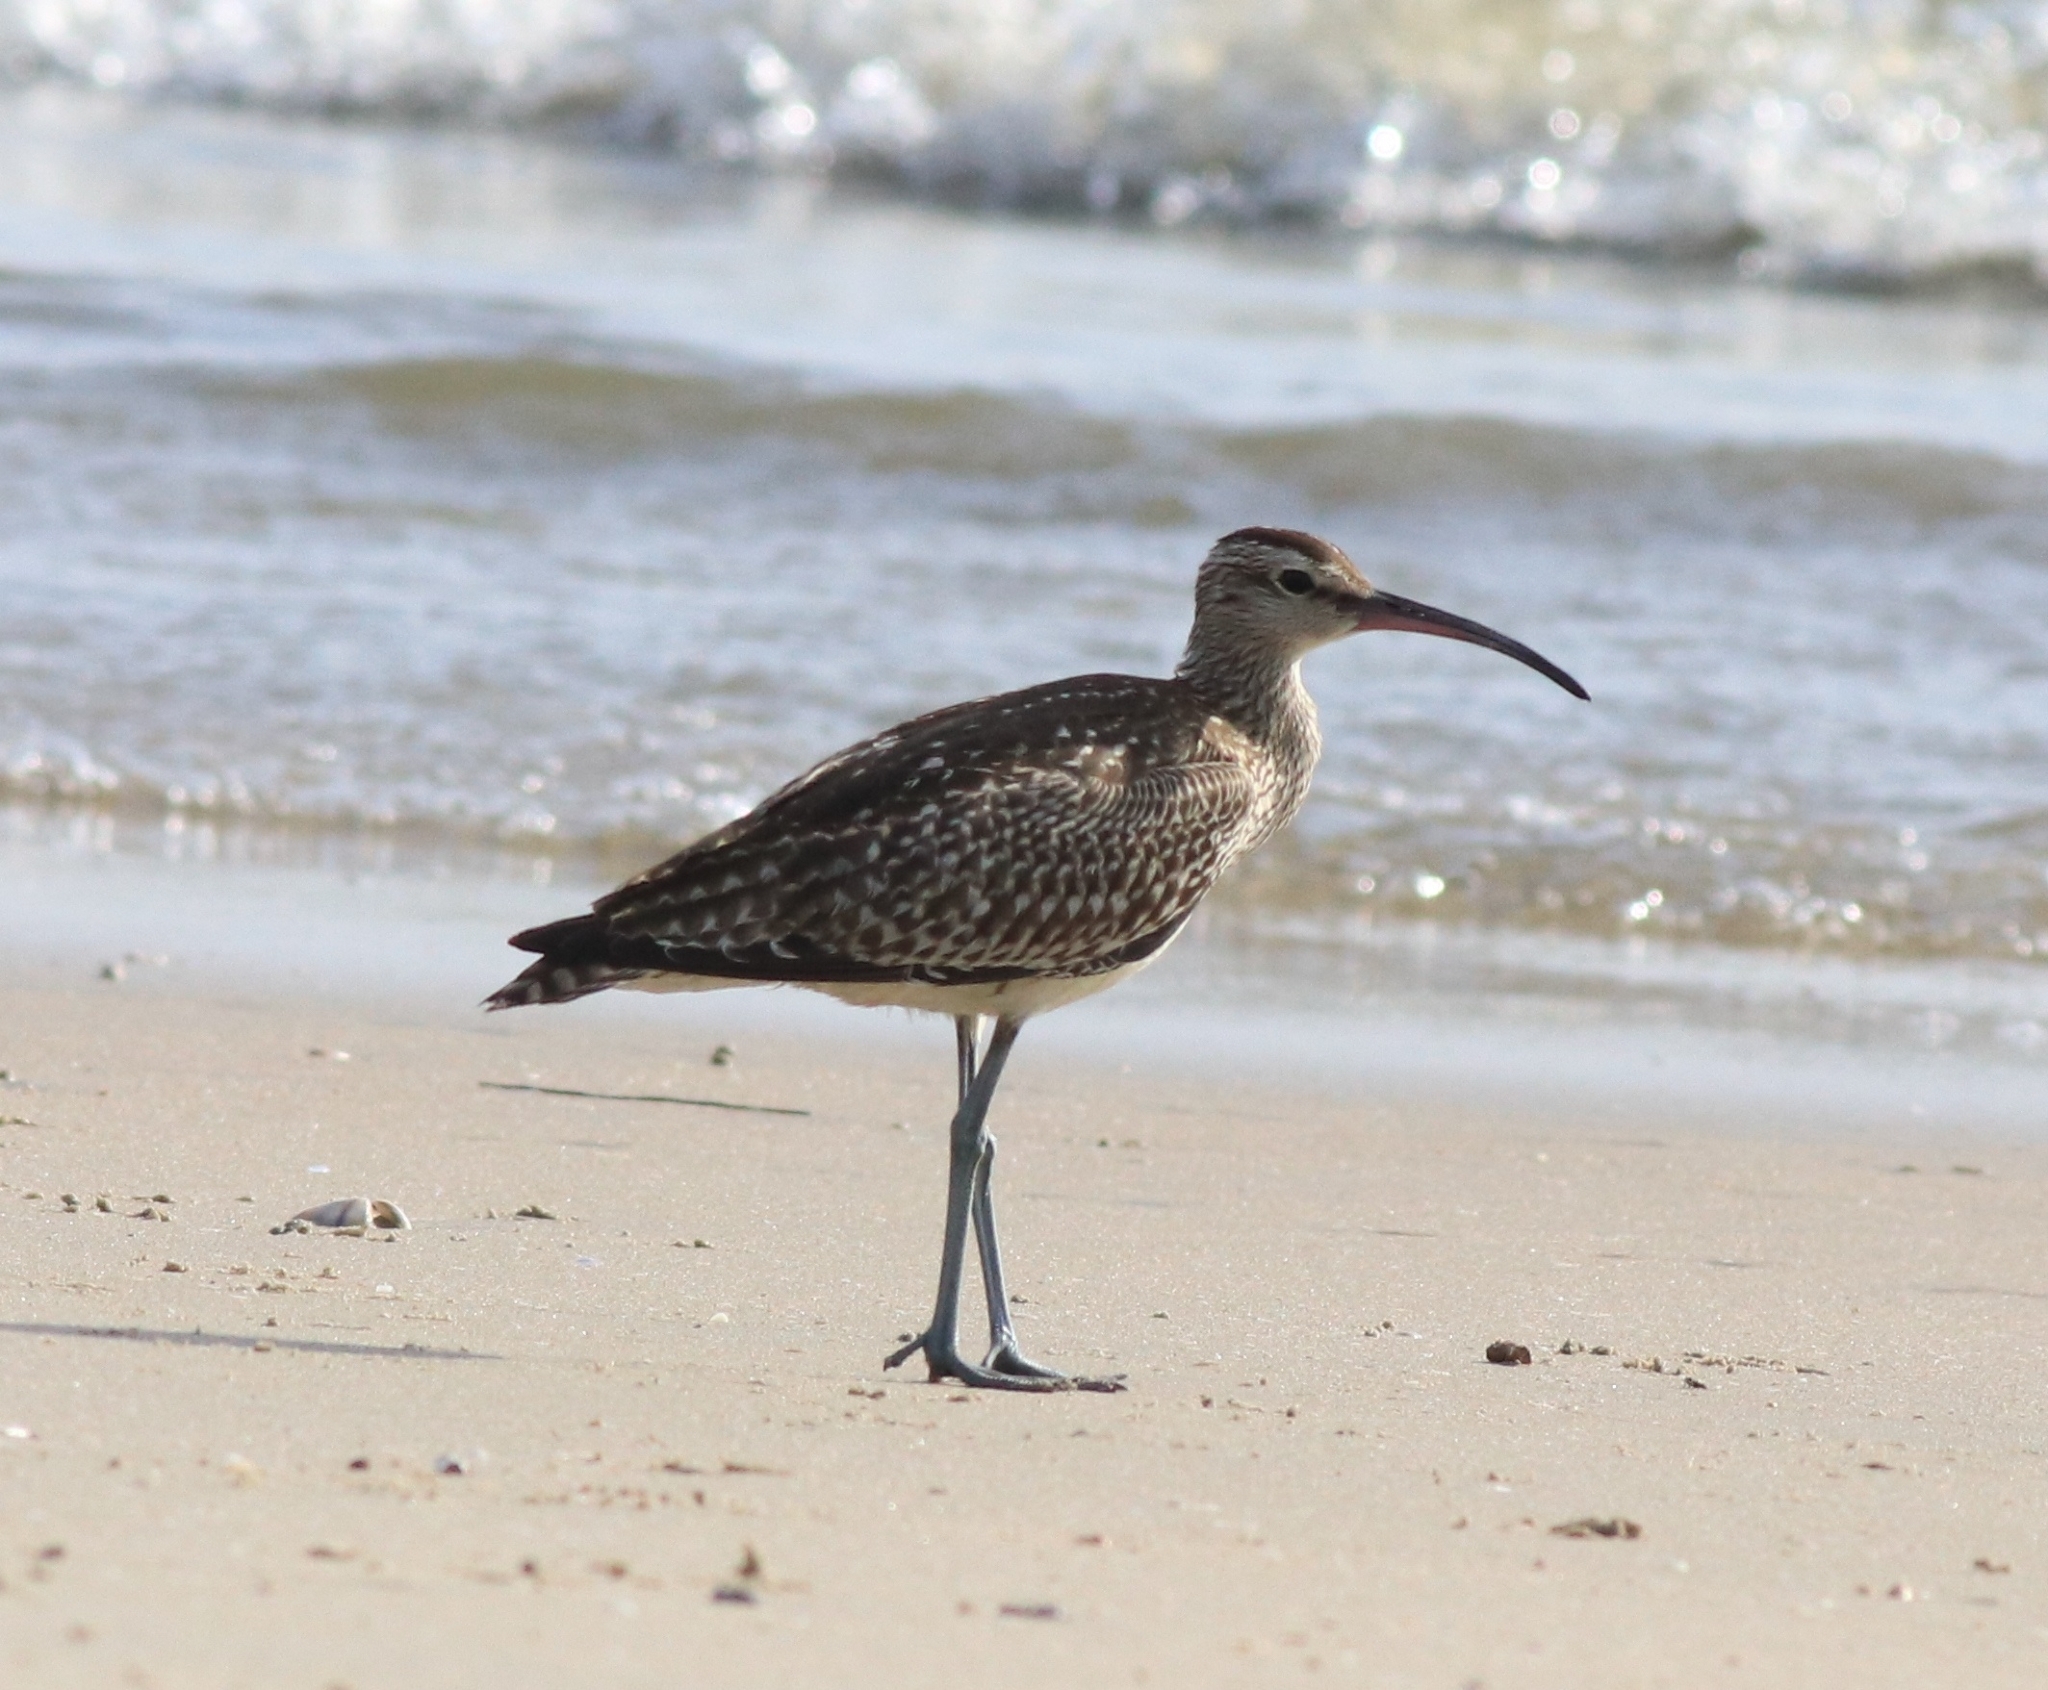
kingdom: Animalia
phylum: Chordata
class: Aves
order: Charadriiformes
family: Scolopacidae
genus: Numenius
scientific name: Numenius phaeopus
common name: Whimbrel
